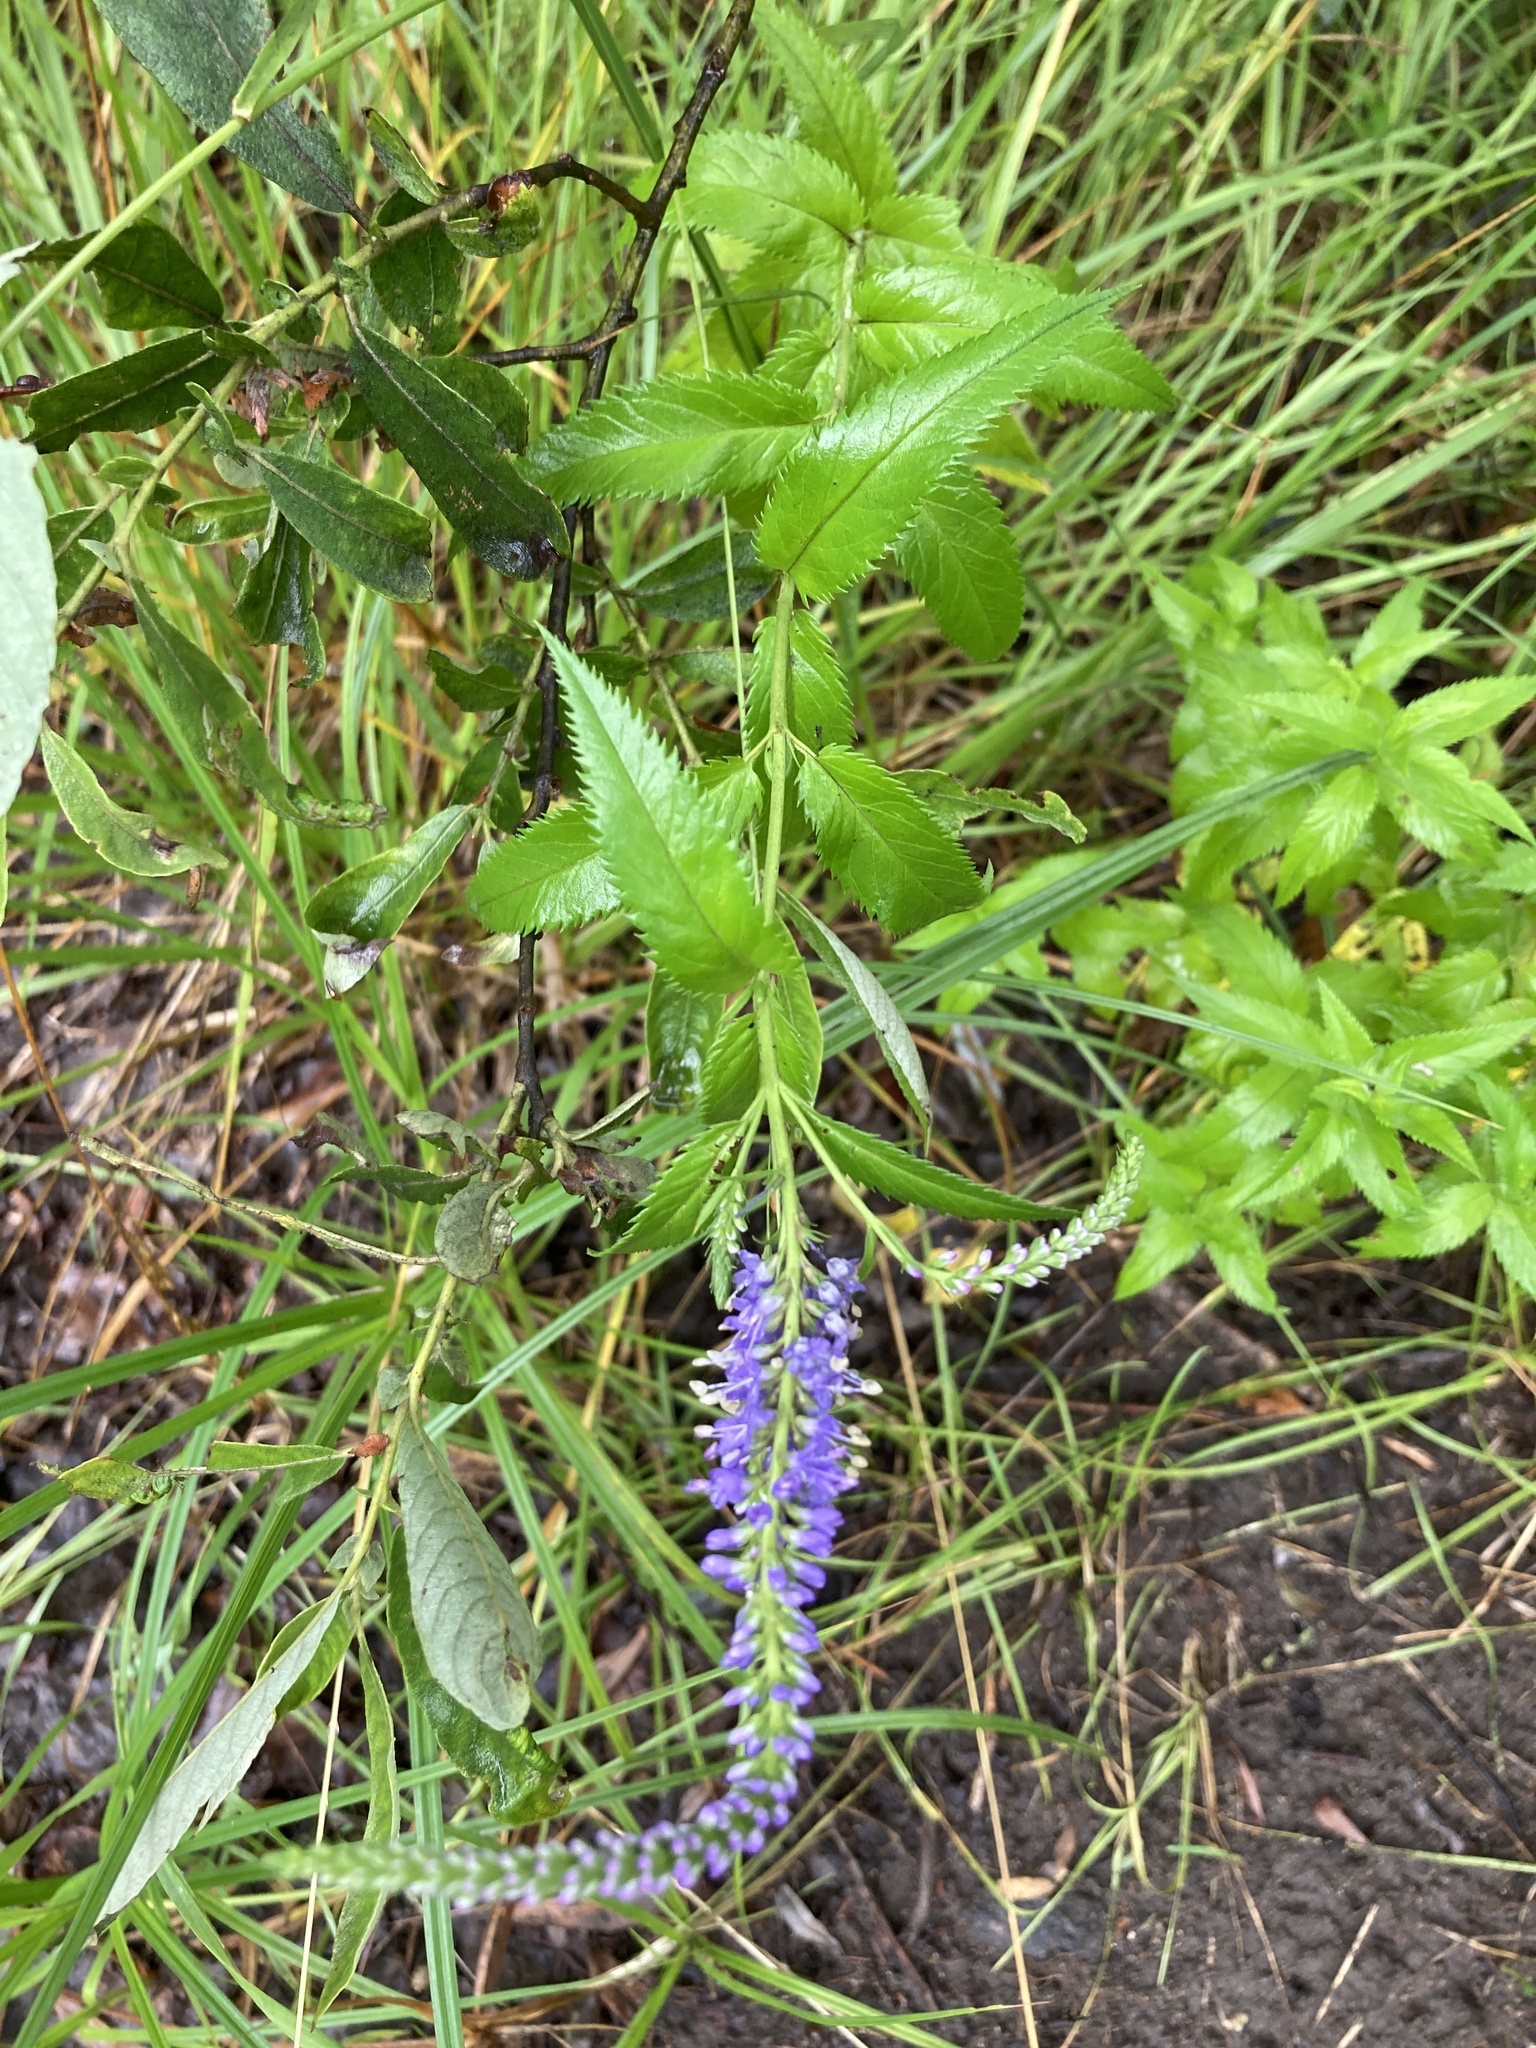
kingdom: Plantae
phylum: Tracheophyta
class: Magnoliopsida
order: Lamiales
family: Plantaginaceae
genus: Veronica
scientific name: Veronica longifolia
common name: Garden speedwell
